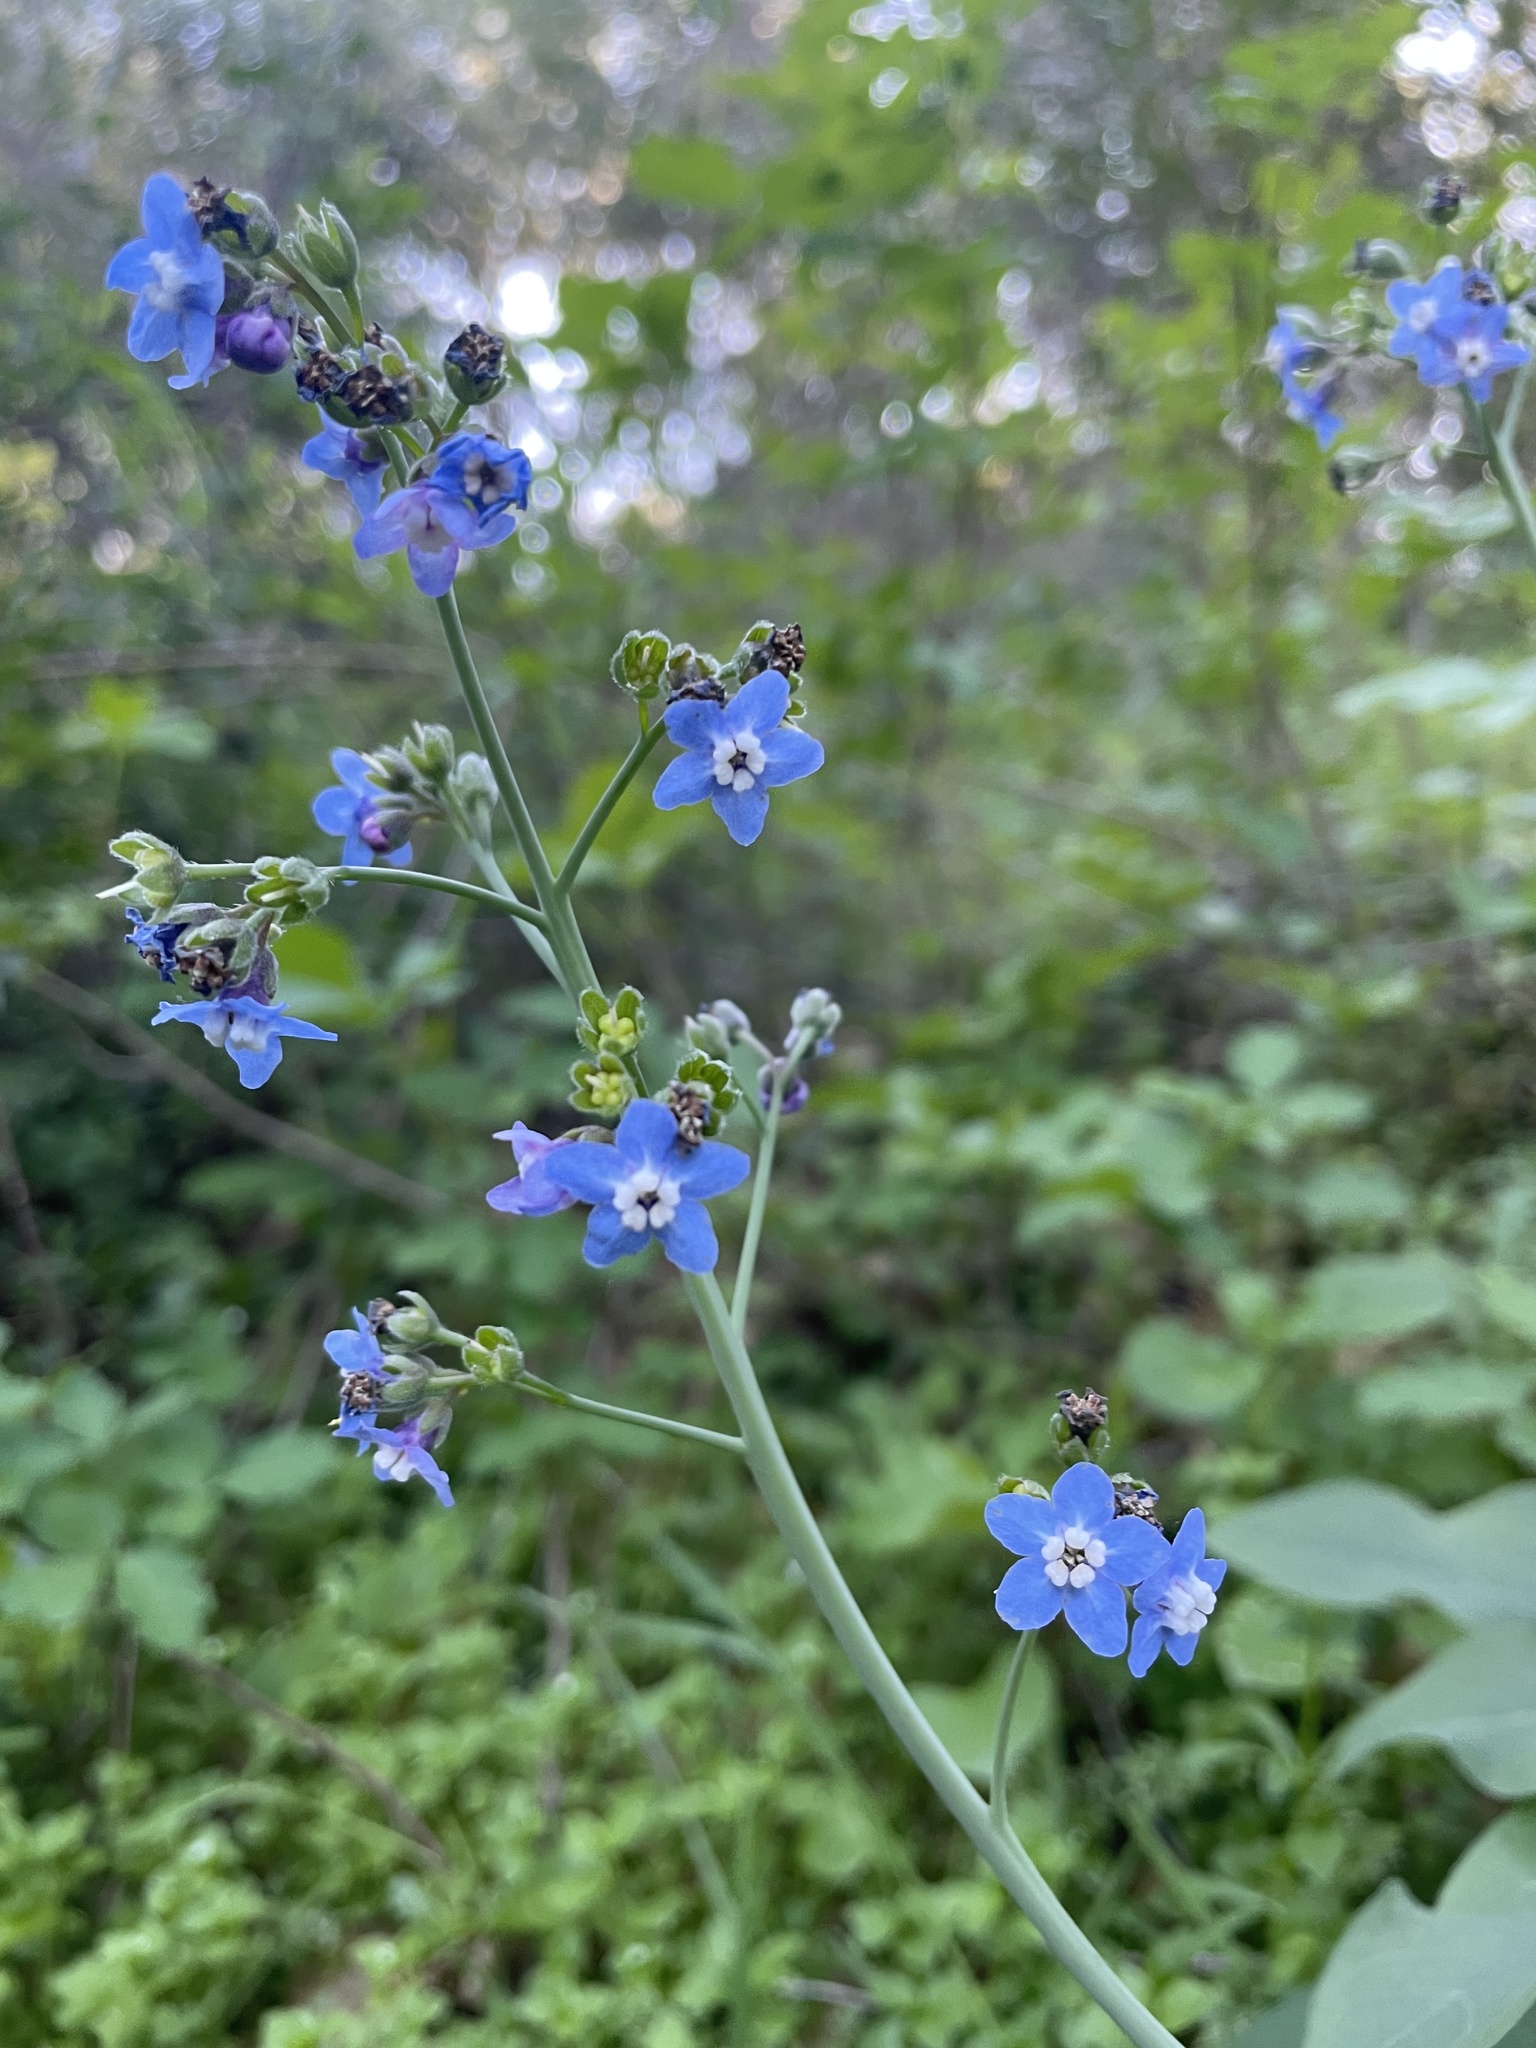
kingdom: Plantae
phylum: Tracheophyta
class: Magnoliopsida
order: Boraginales
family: Boraginaceae
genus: Adelinia
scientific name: Adelinia grande
